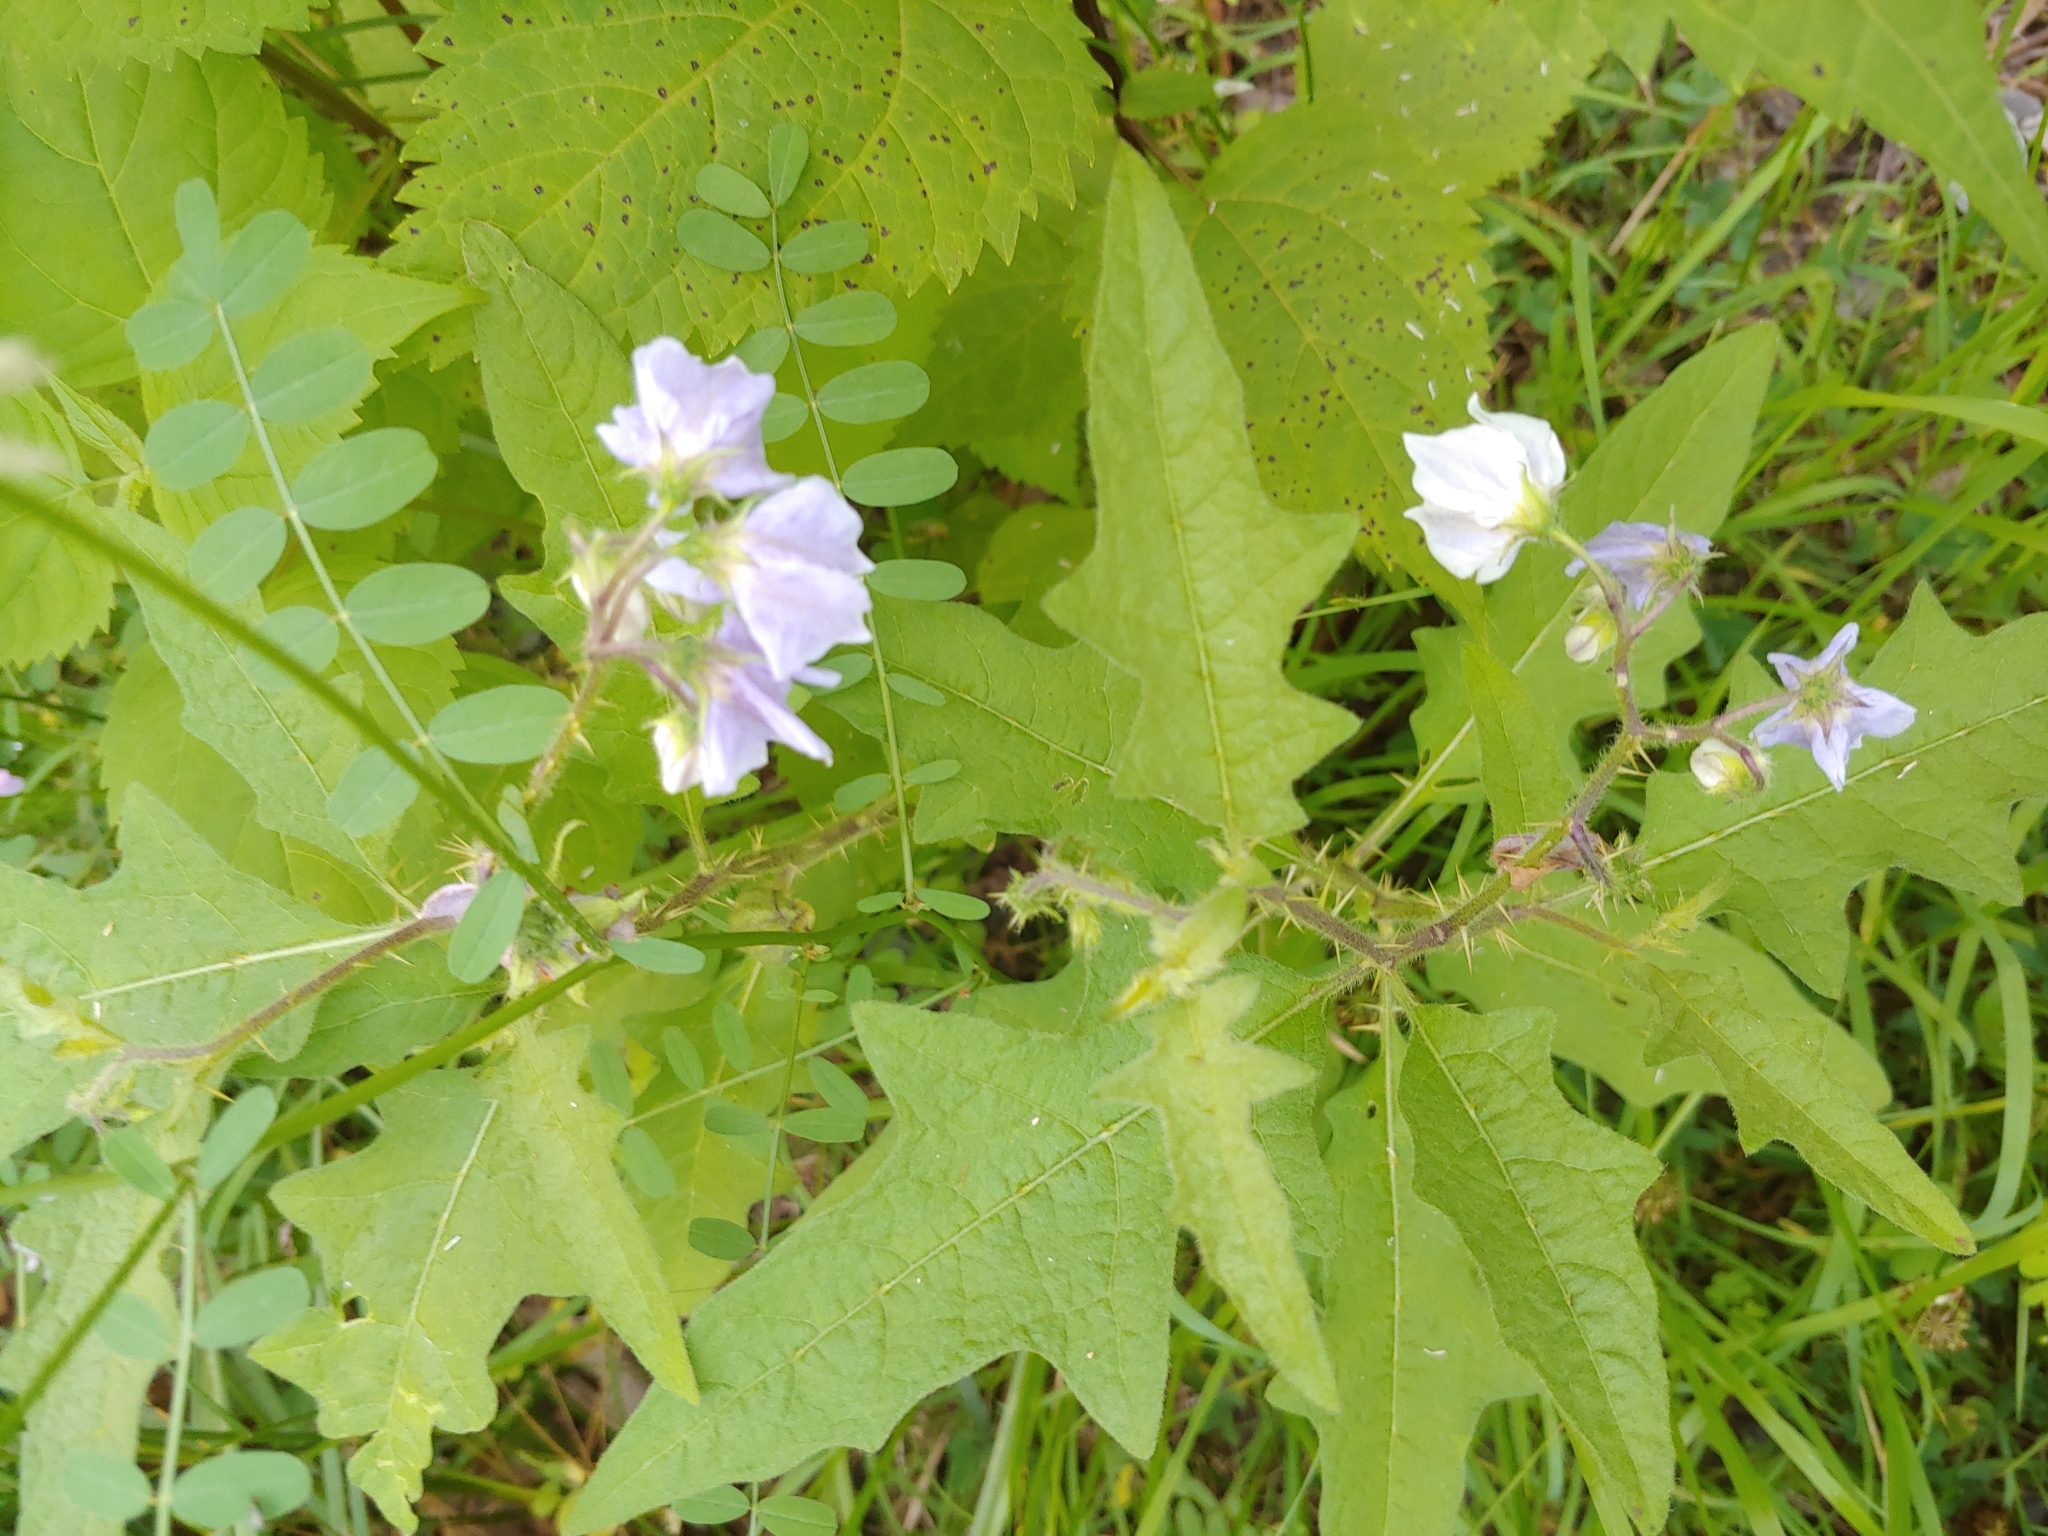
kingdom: Plantae
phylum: Tracheophyta
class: Magnoliopsida
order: Solanales
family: Solanaceae
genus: Solanum
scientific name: Solanum carolinense
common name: Horse-nettle
